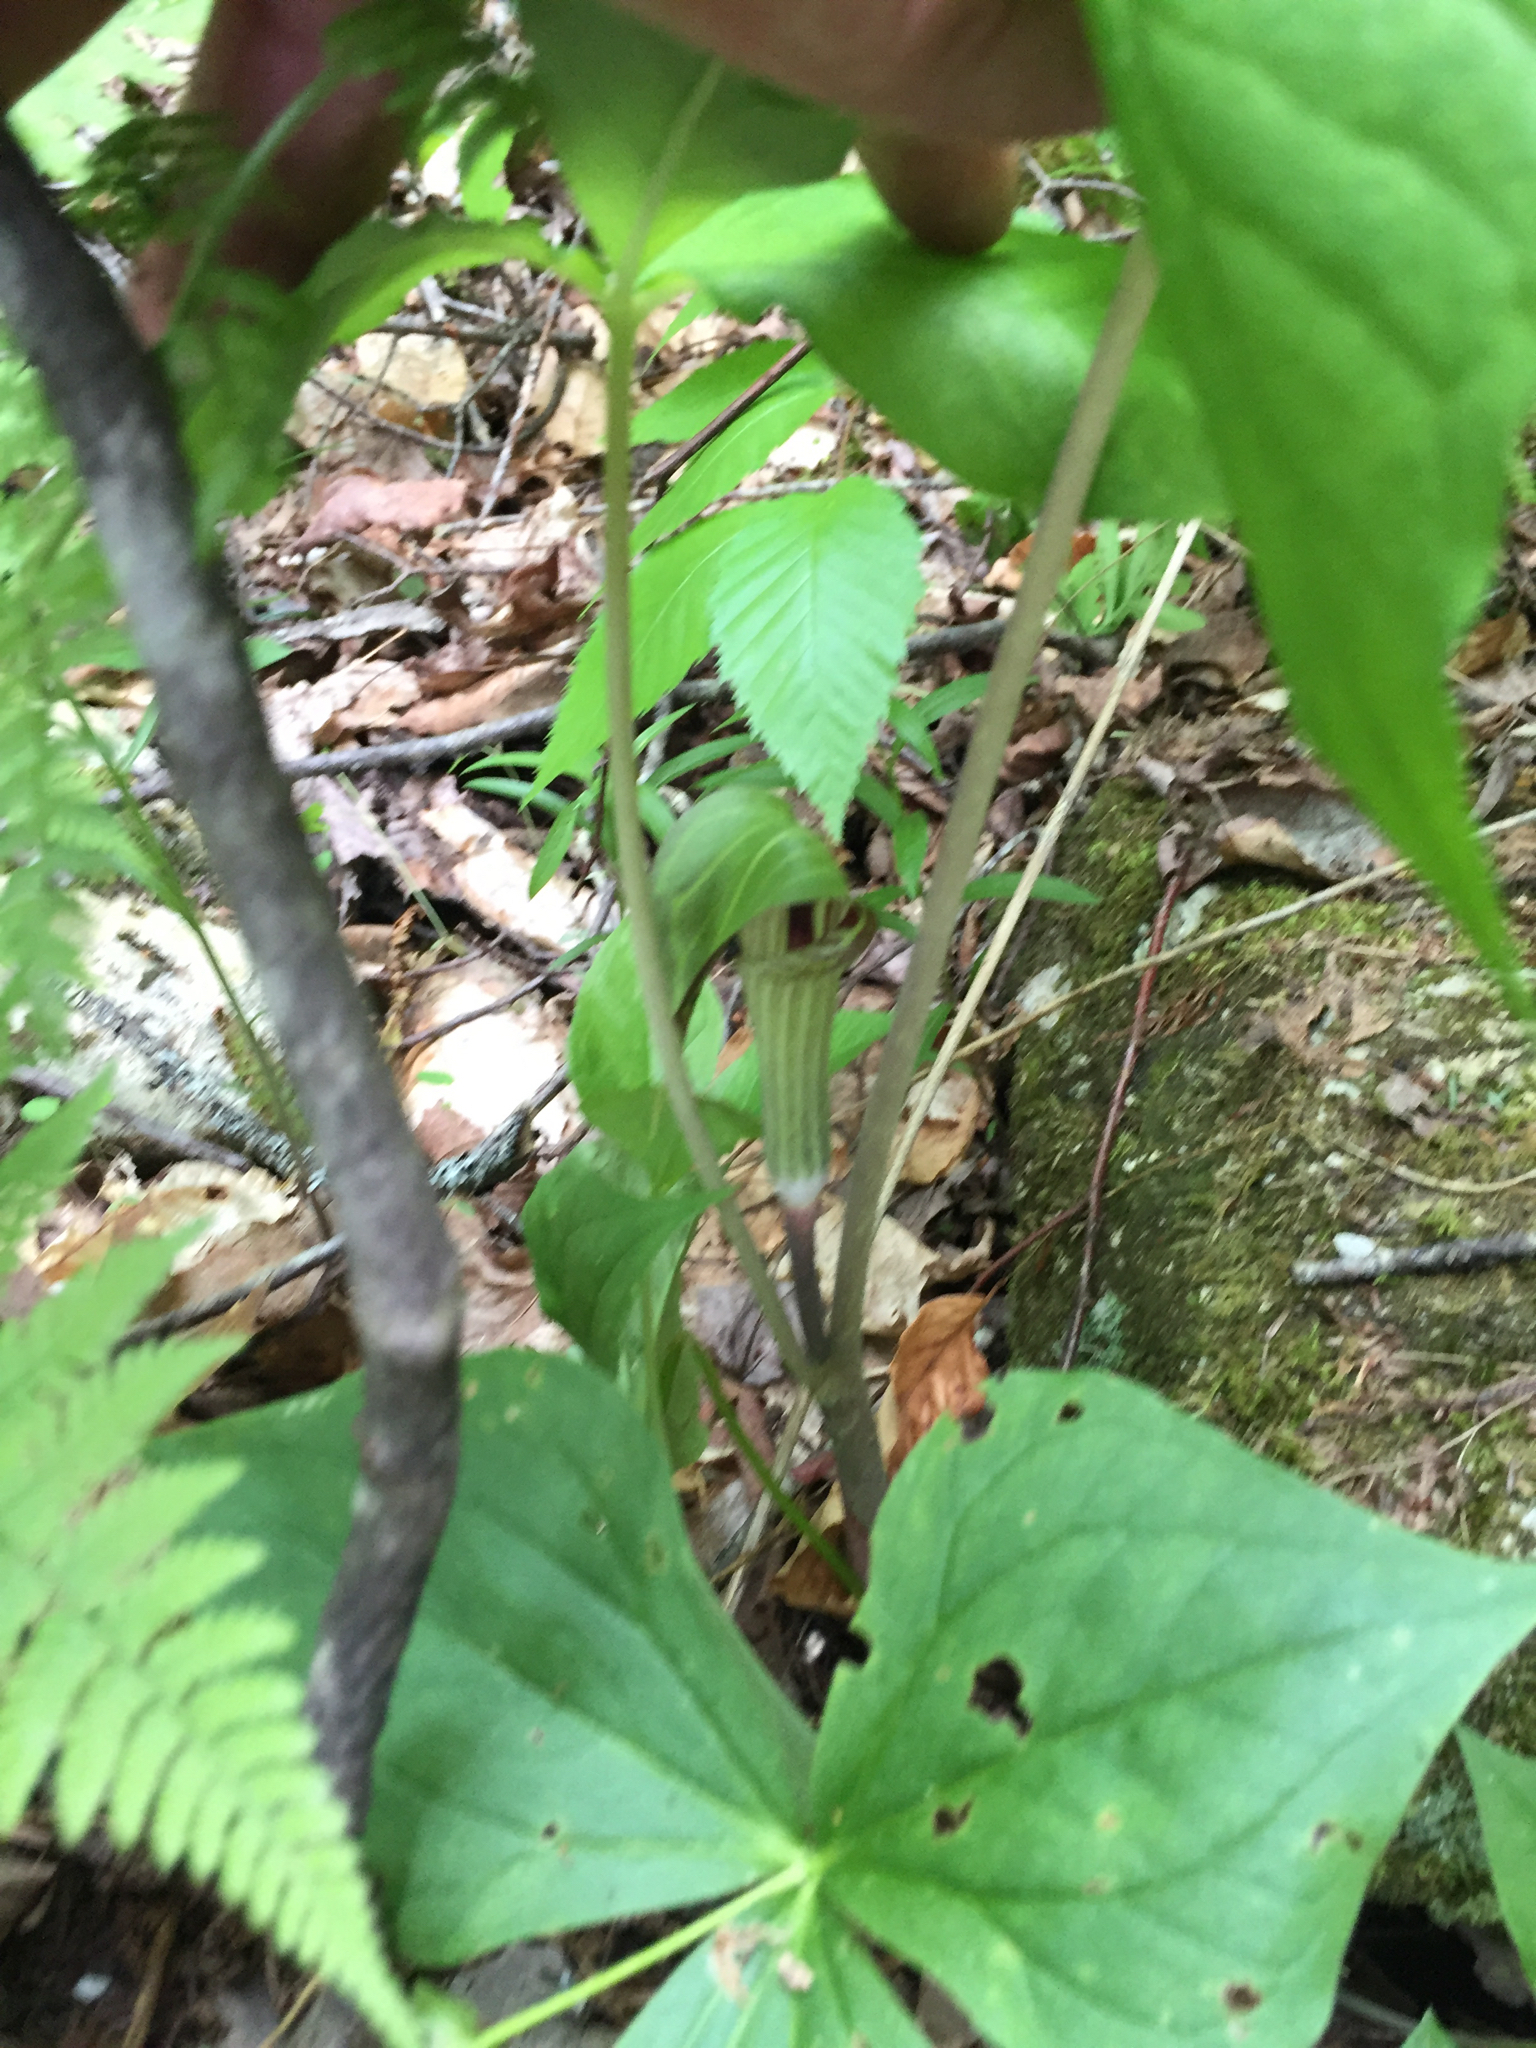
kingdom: Plantae
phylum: Tracheophyta
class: Liliopsida
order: Alismatales
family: Araceae
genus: Arisaema
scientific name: Arisaema triphyllum
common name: Jack-in-the-pulpit
